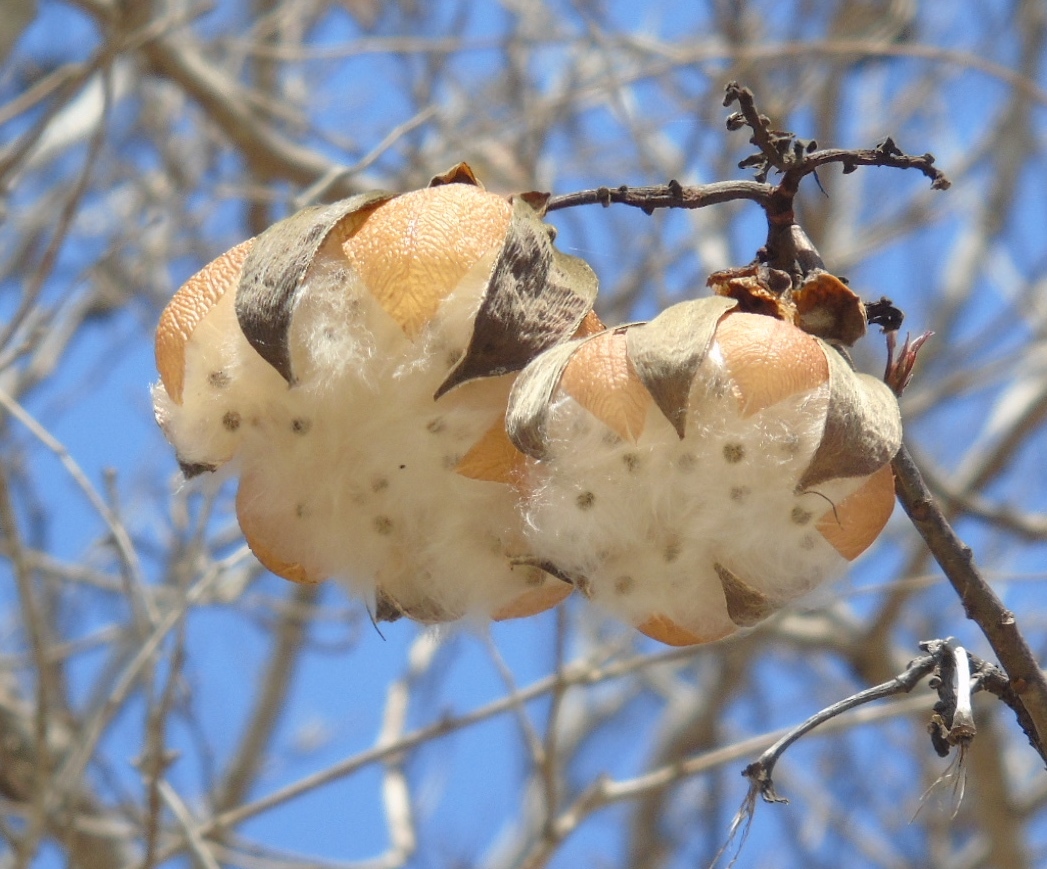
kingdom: Plantae
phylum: Tracheophyta
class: Magnoliopsida
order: Malvales
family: Cochlospermaceae
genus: Cochlospermum
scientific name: Cochlospermum vitifolium
